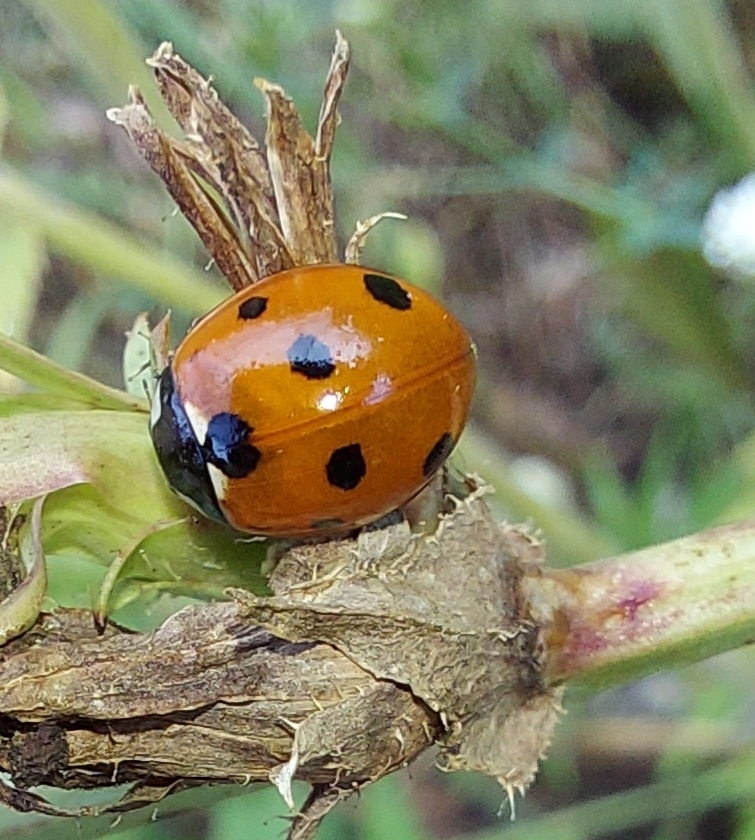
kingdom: Animalia
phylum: Arthropoda
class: Insecta
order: Coleoptera
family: Coccinellidae
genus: Coccinella
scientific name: Coccinella septempunctata
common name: Sevenspotted lady beetle
